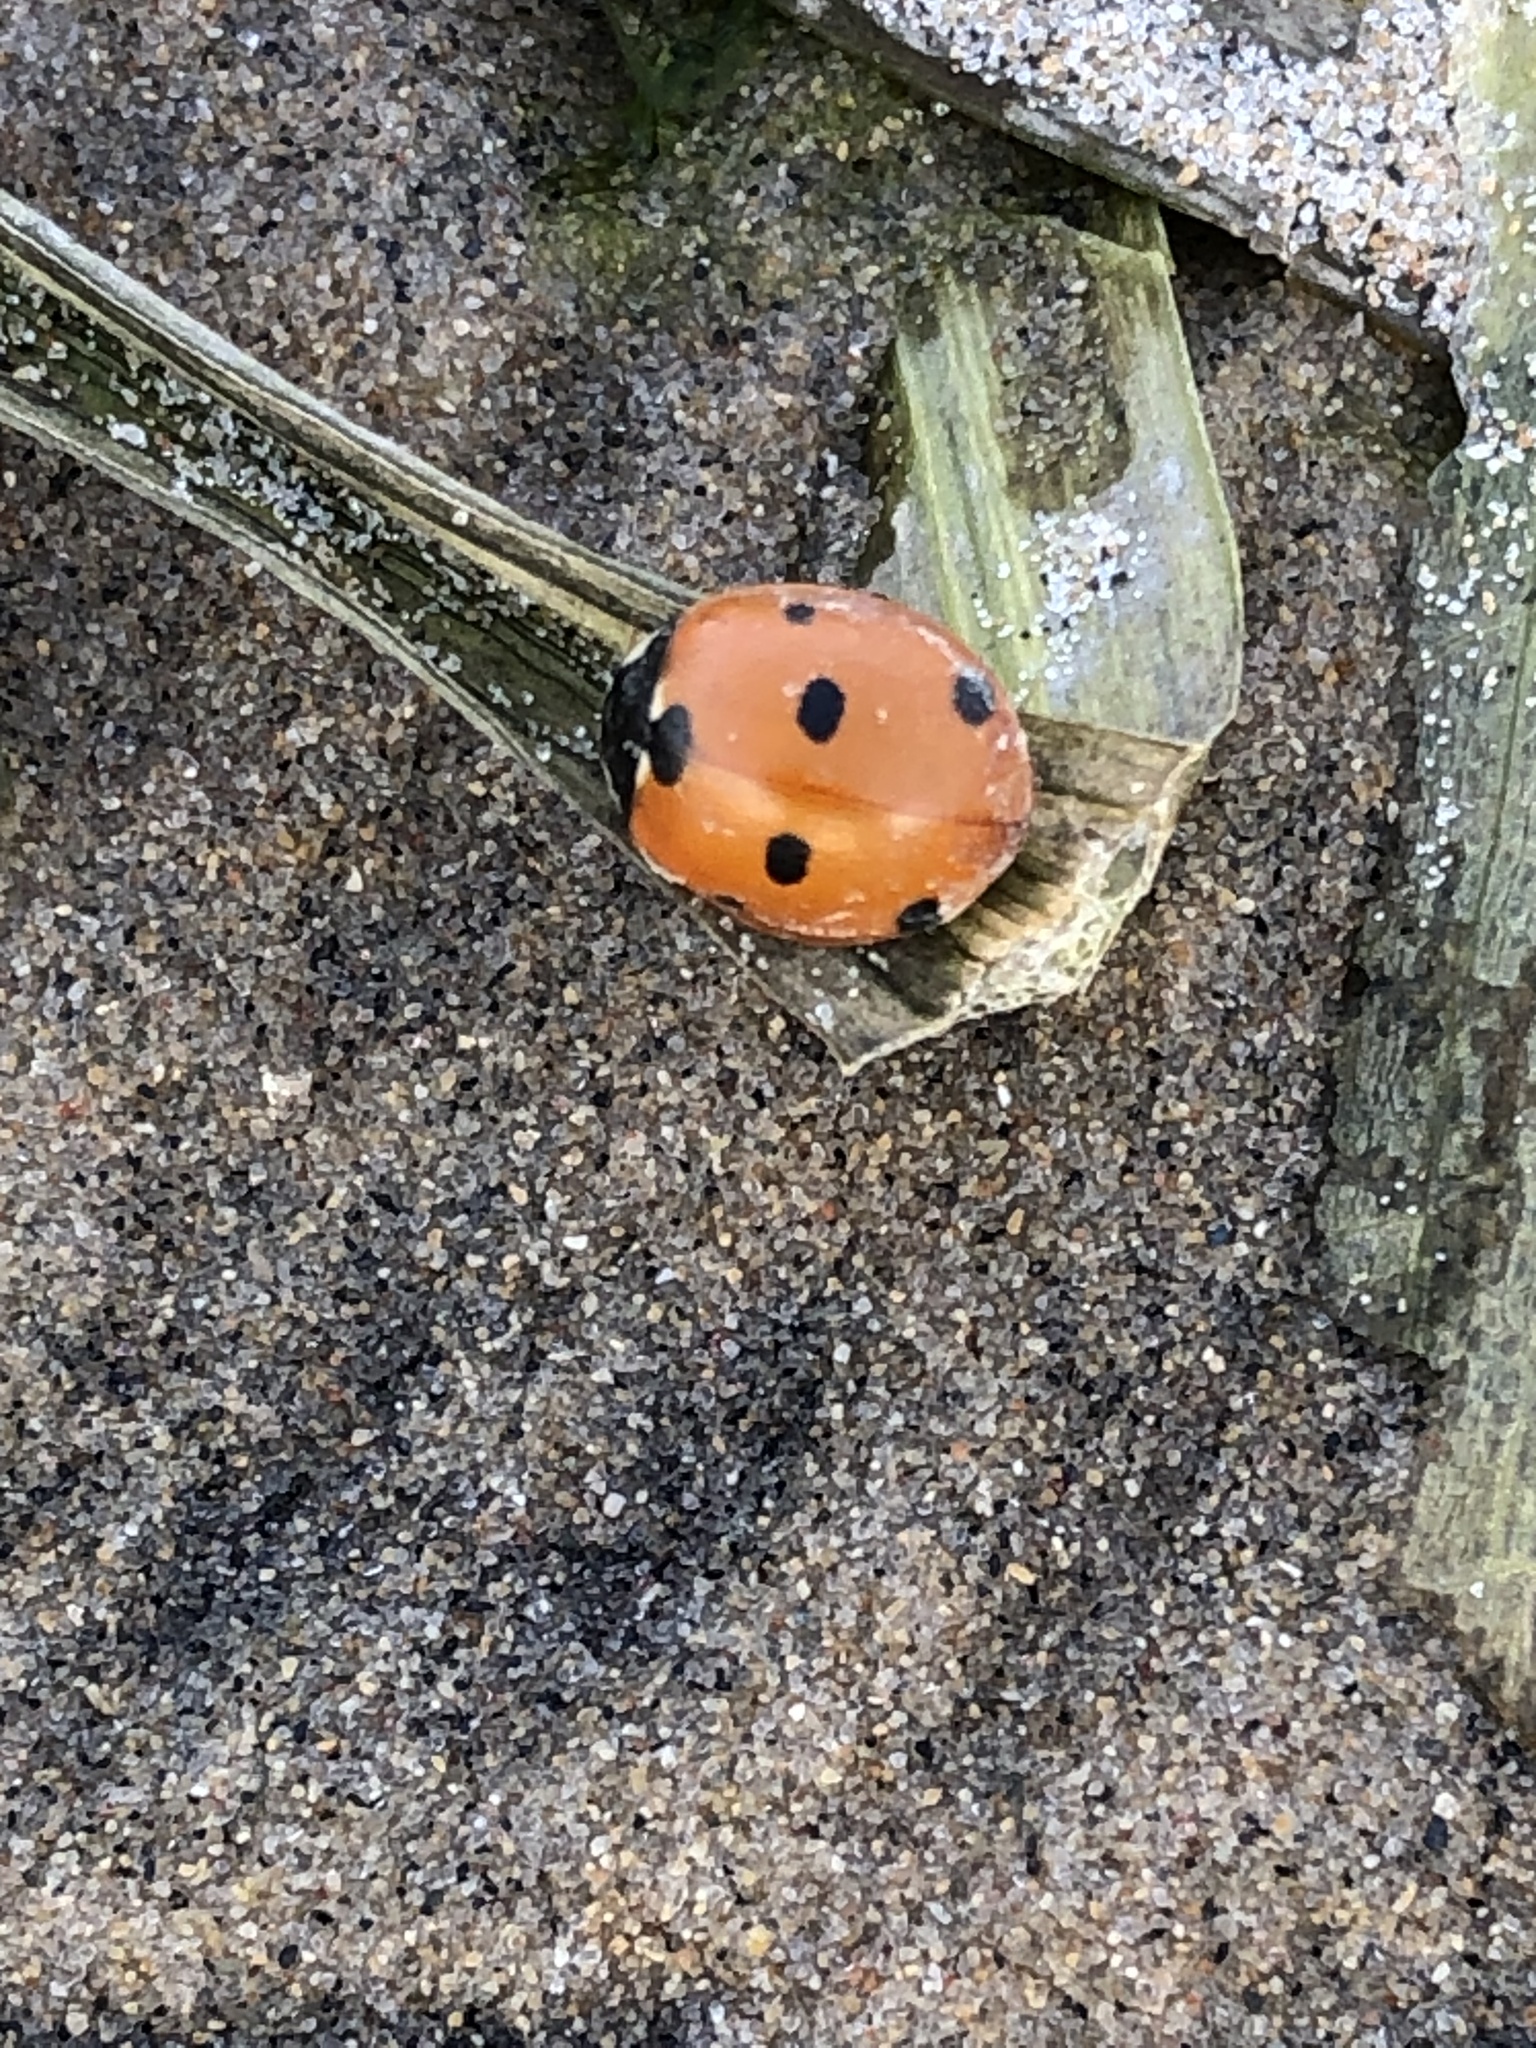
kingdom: Animalia
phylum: Arthropoda
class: Insecta
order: Coleoptera
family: Coccinellidae
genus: Coccinella
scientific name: Coccinella septempunctata
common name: Sevenspotted lady beetle
